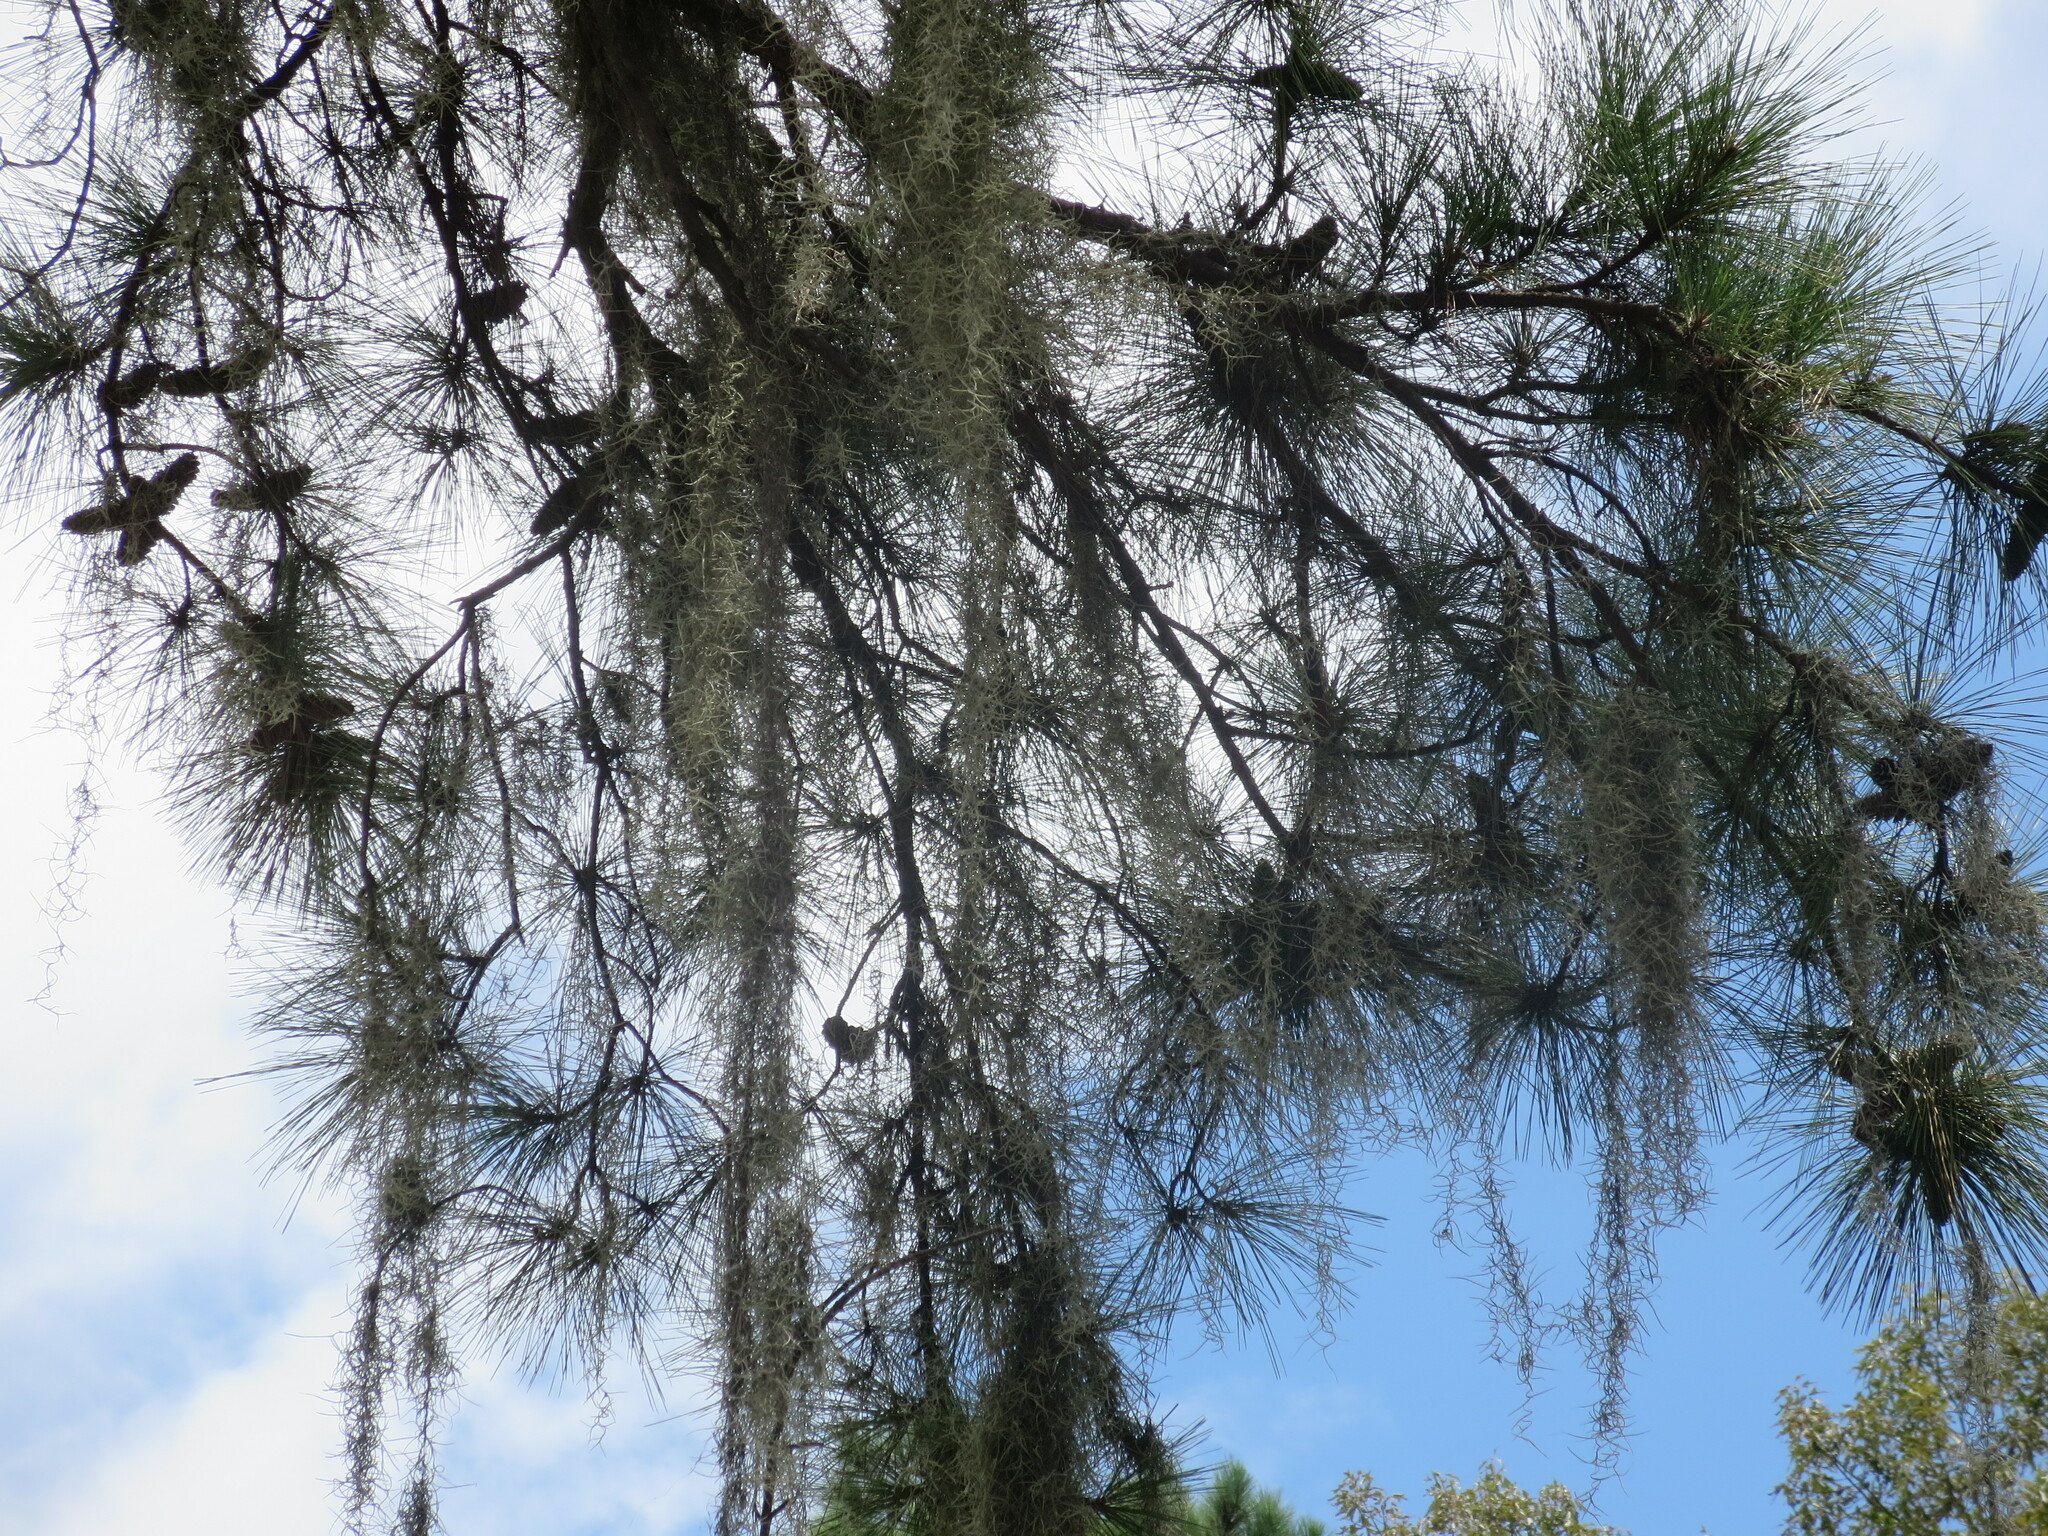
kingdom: Plantae
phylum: Tracheophyta
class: Liliopsida
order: Poales
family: Bromeliaceae
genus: Tillandsia
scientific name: Tillandsia usneoides
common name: Spanish moss
